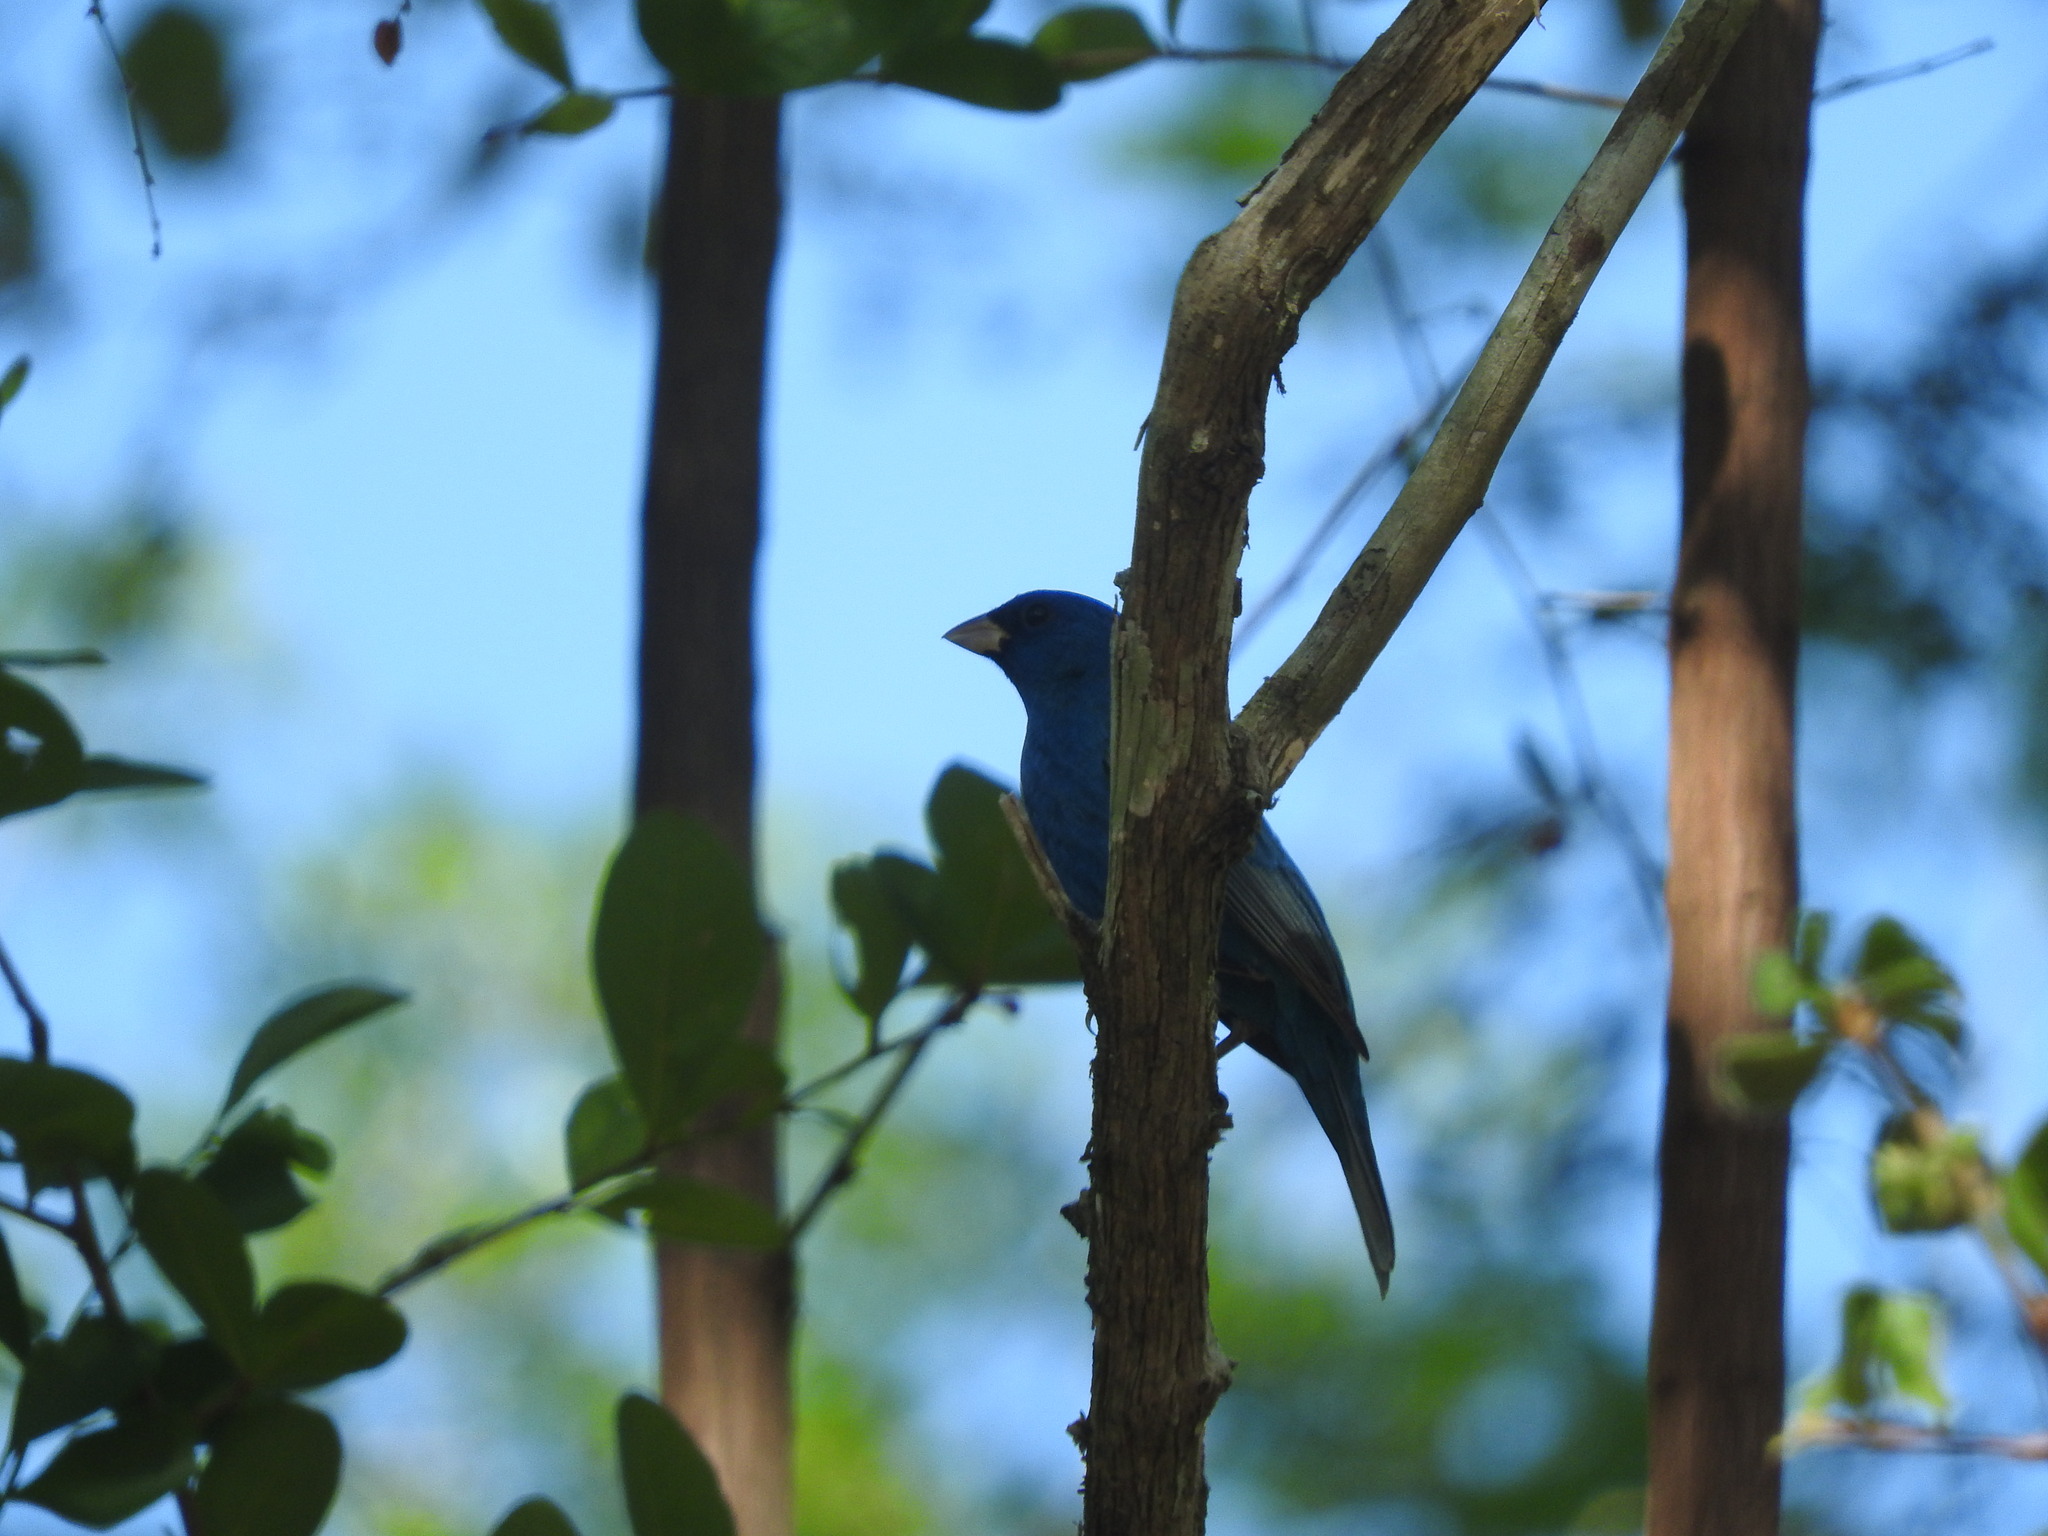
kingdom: Animalia
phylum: Chordata
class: Aves
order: Passeriformes
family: Cardinalidae
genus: Passerina
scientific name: Passerina cyanea
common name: Indigo bunting
